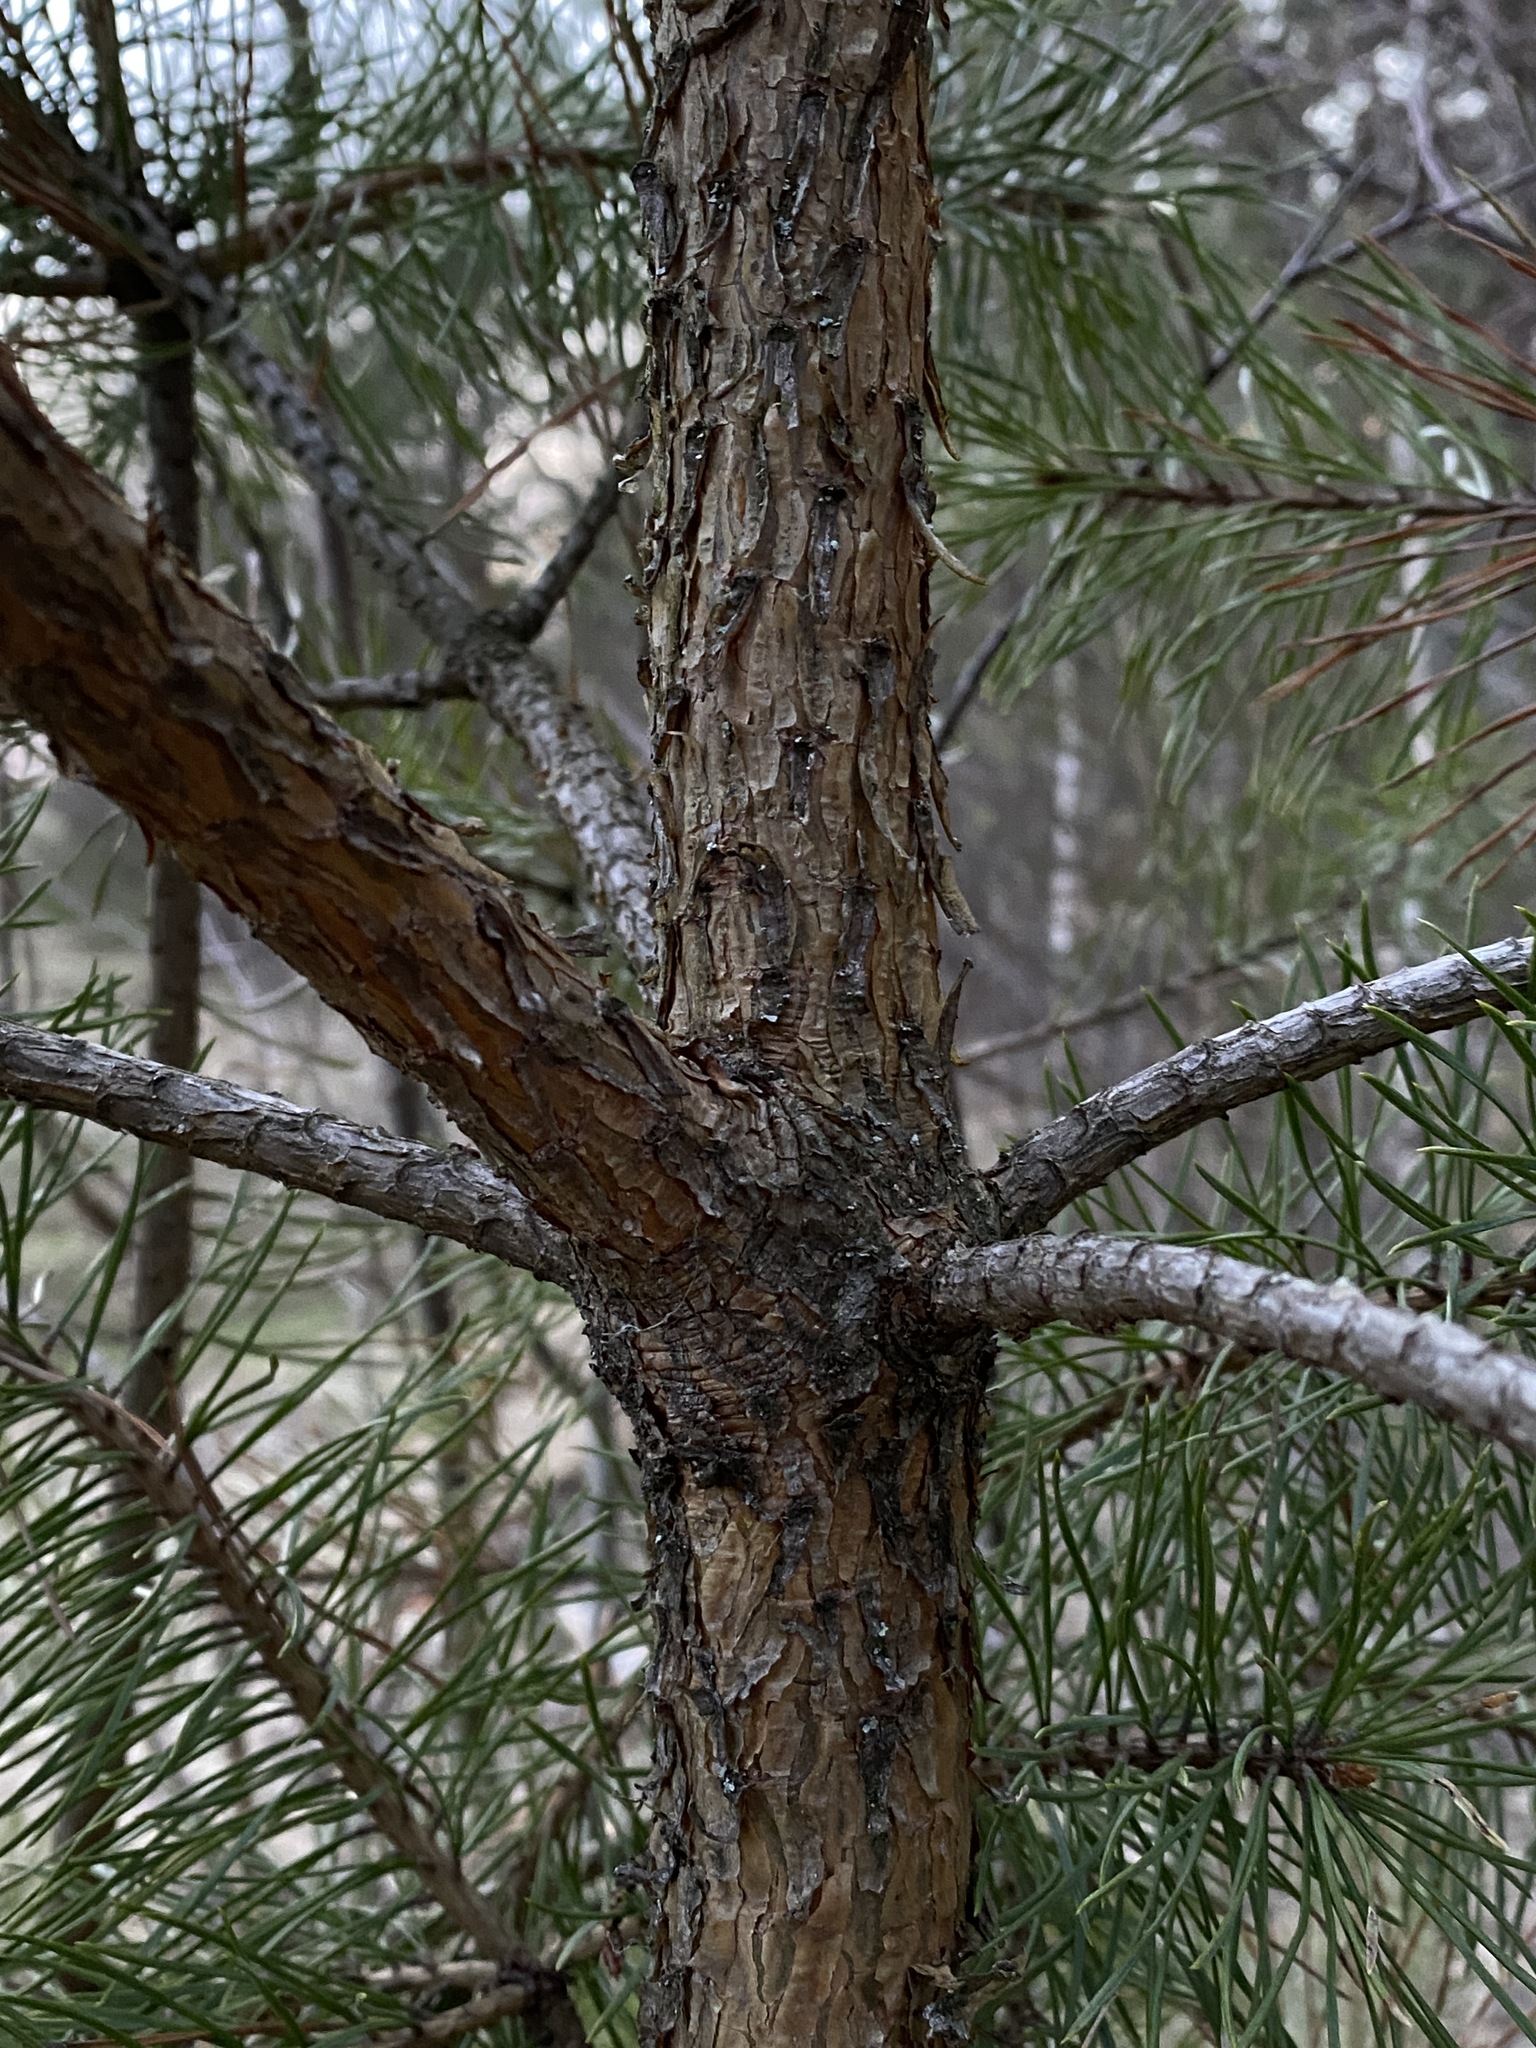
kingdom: Plantae
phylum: Tracheophyta
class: Pinopsida
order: Pinales
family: Pinaceae
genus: Pinus
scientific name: Pinus sylvestris
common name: Scots pine
